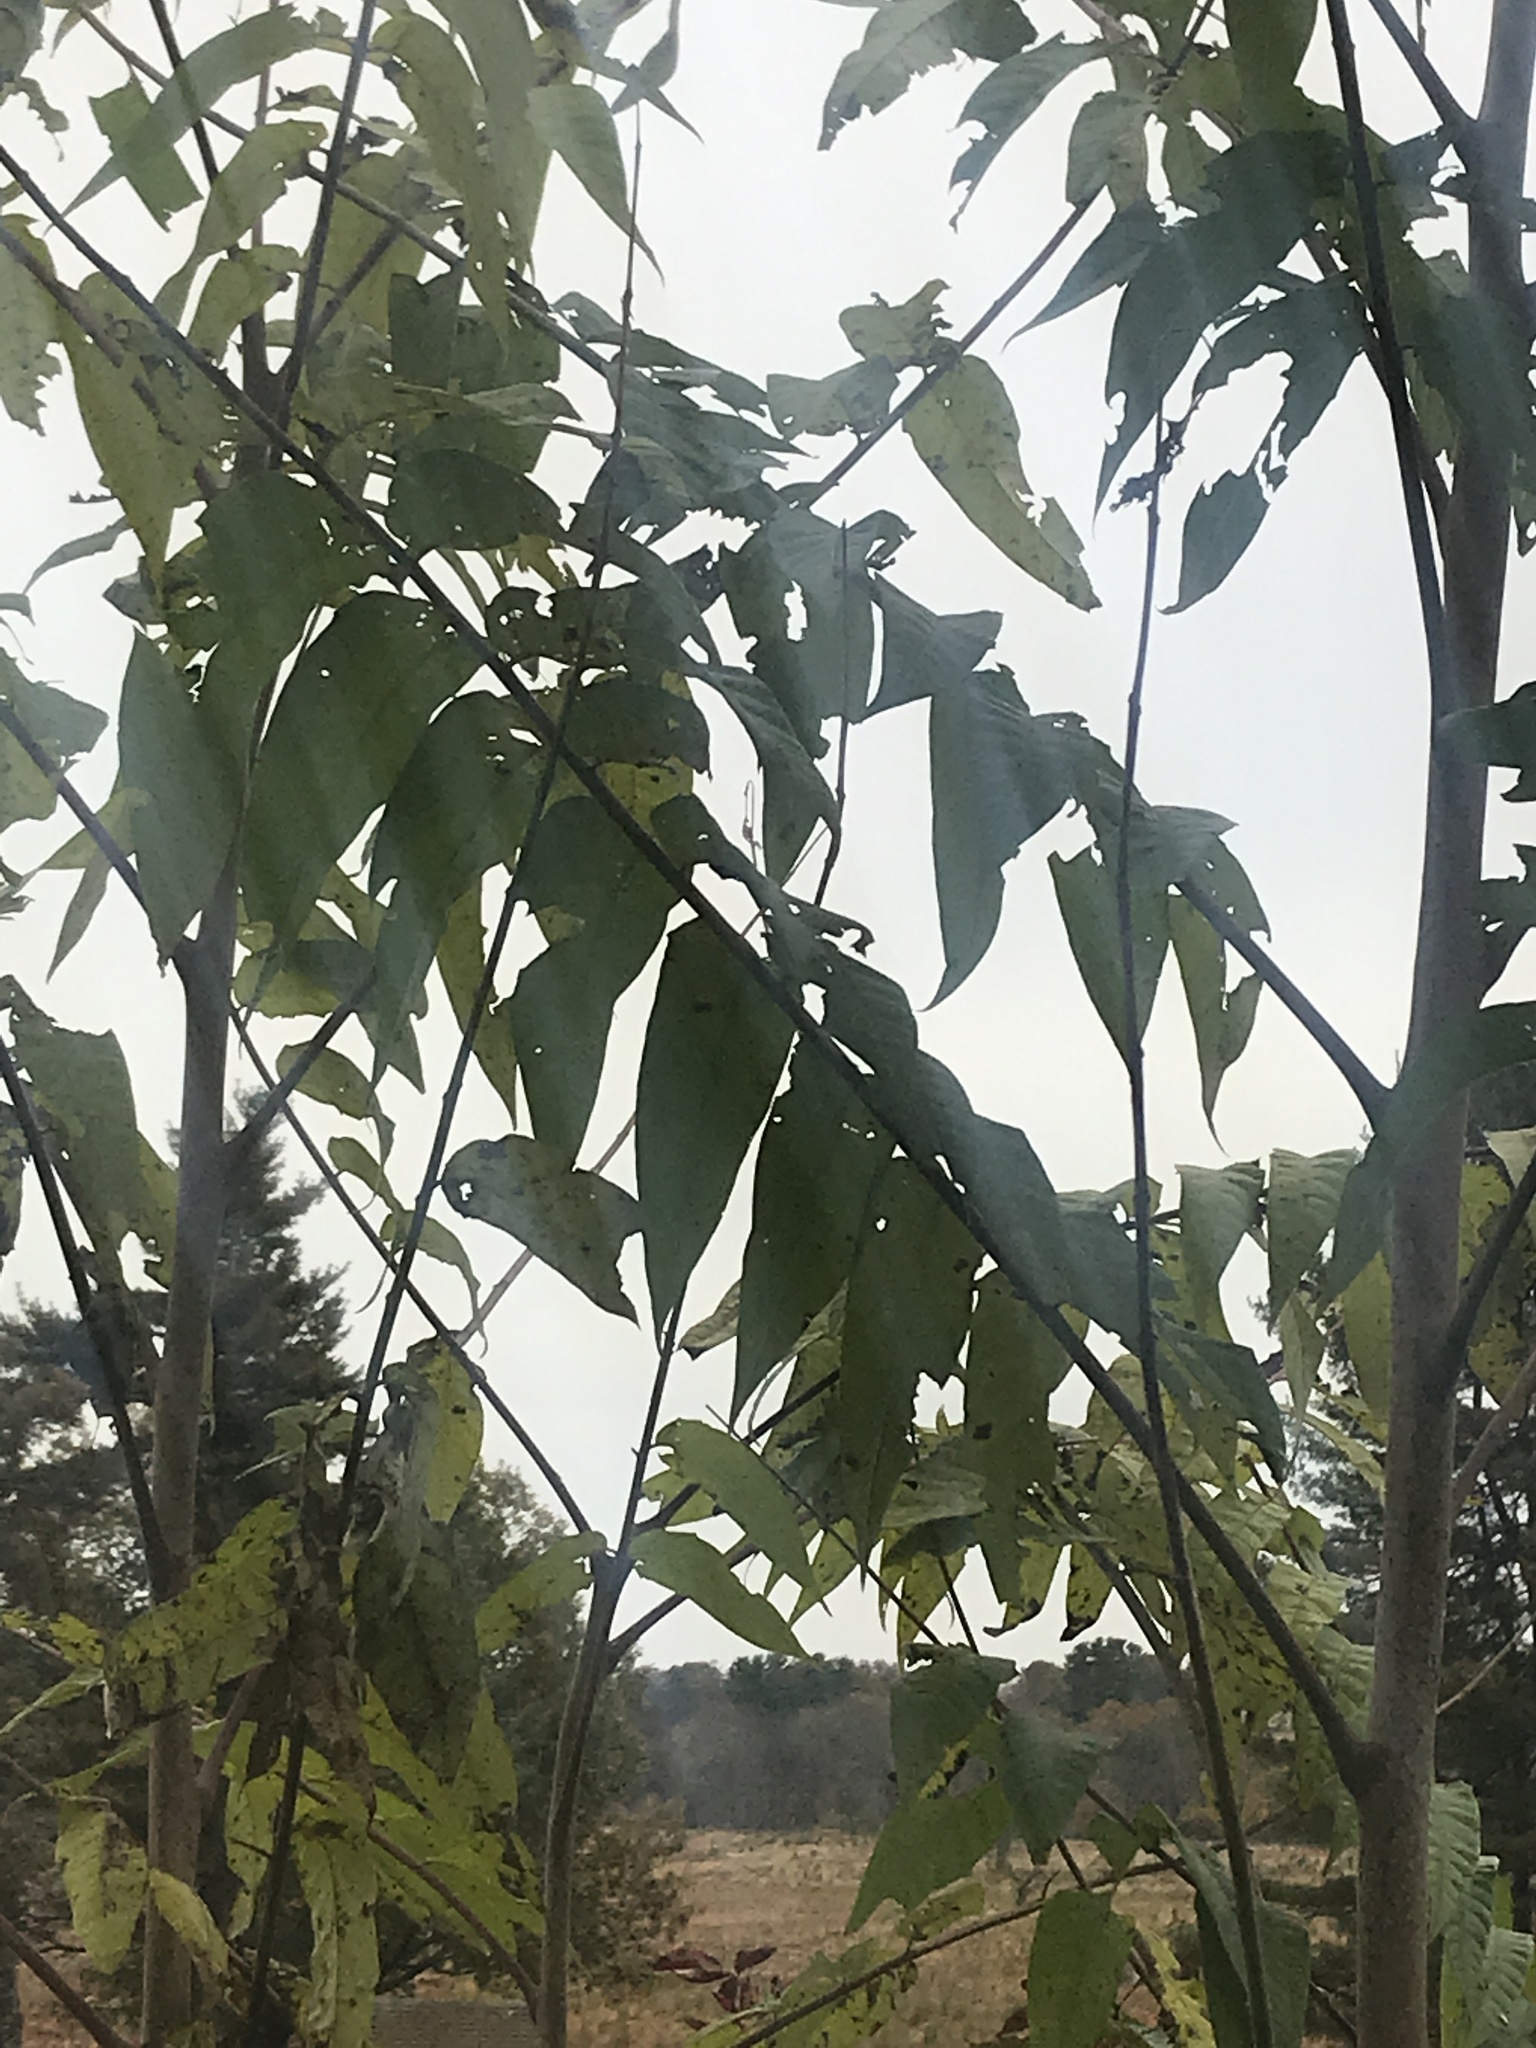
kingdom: Plantae
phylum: Tracheophyta
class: Magnoliopsida
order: Sapindales
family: Simaroubaceae
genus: Ailanthus
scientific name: Ailanthus altissima
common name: Tree-of-heaven
